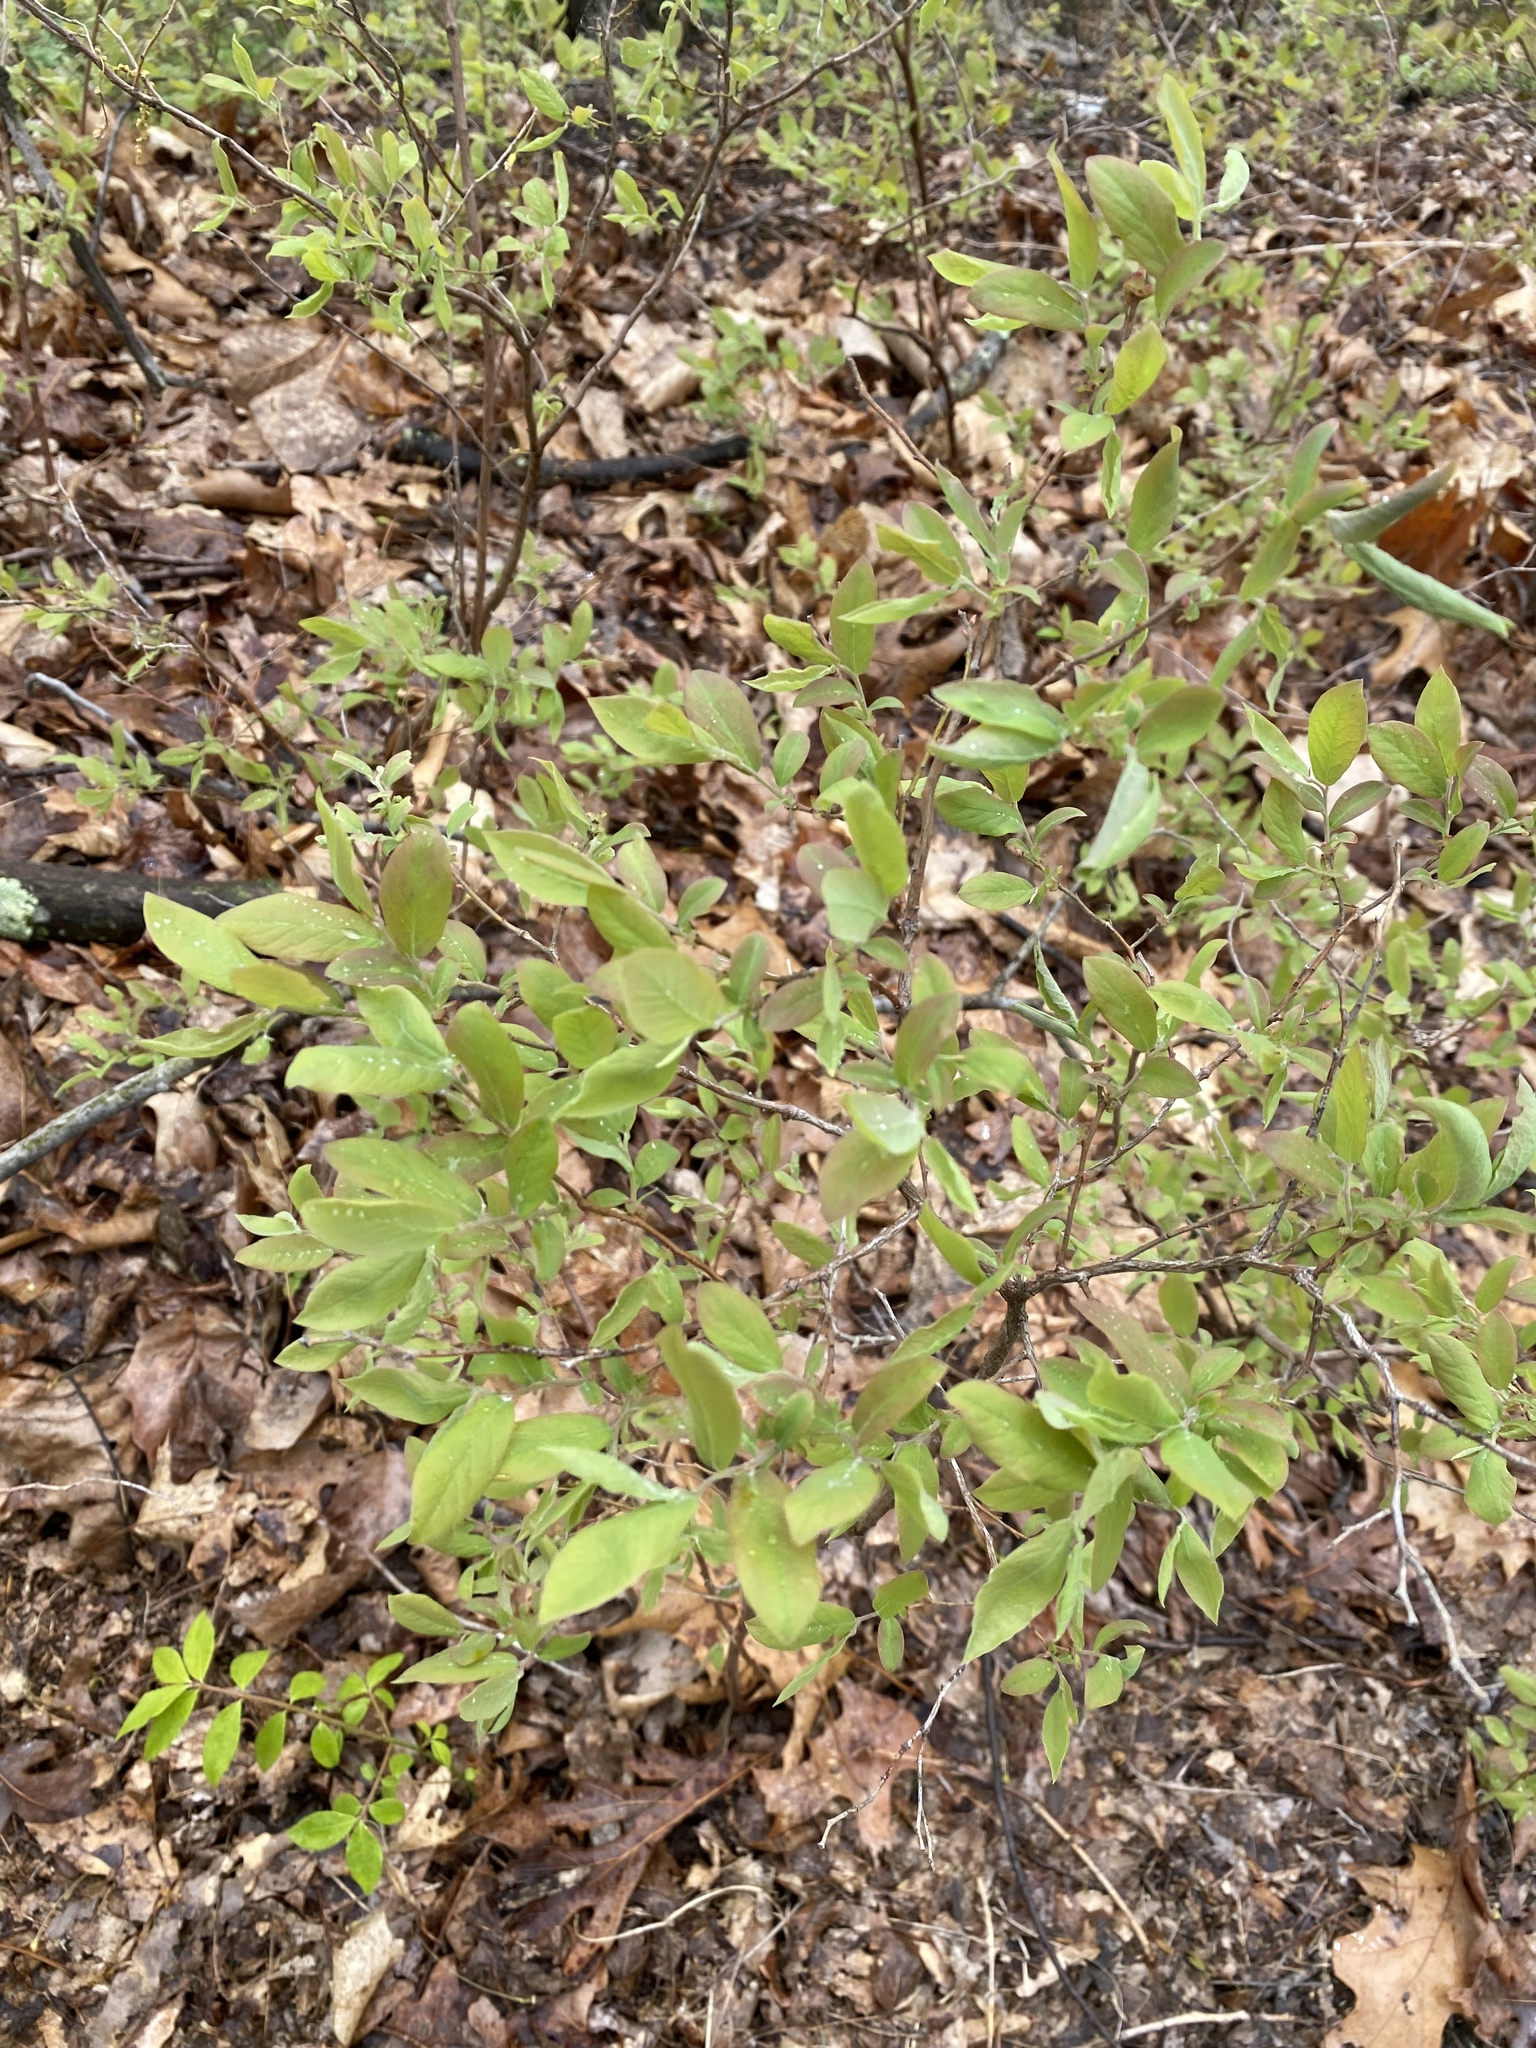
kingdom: Plantae
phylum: Tracheophyta
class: Magnoliopsida
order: Ericales
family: Ericaceae
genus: Vaccinium
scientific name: Vaccinium stamineum
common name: Deerberry
